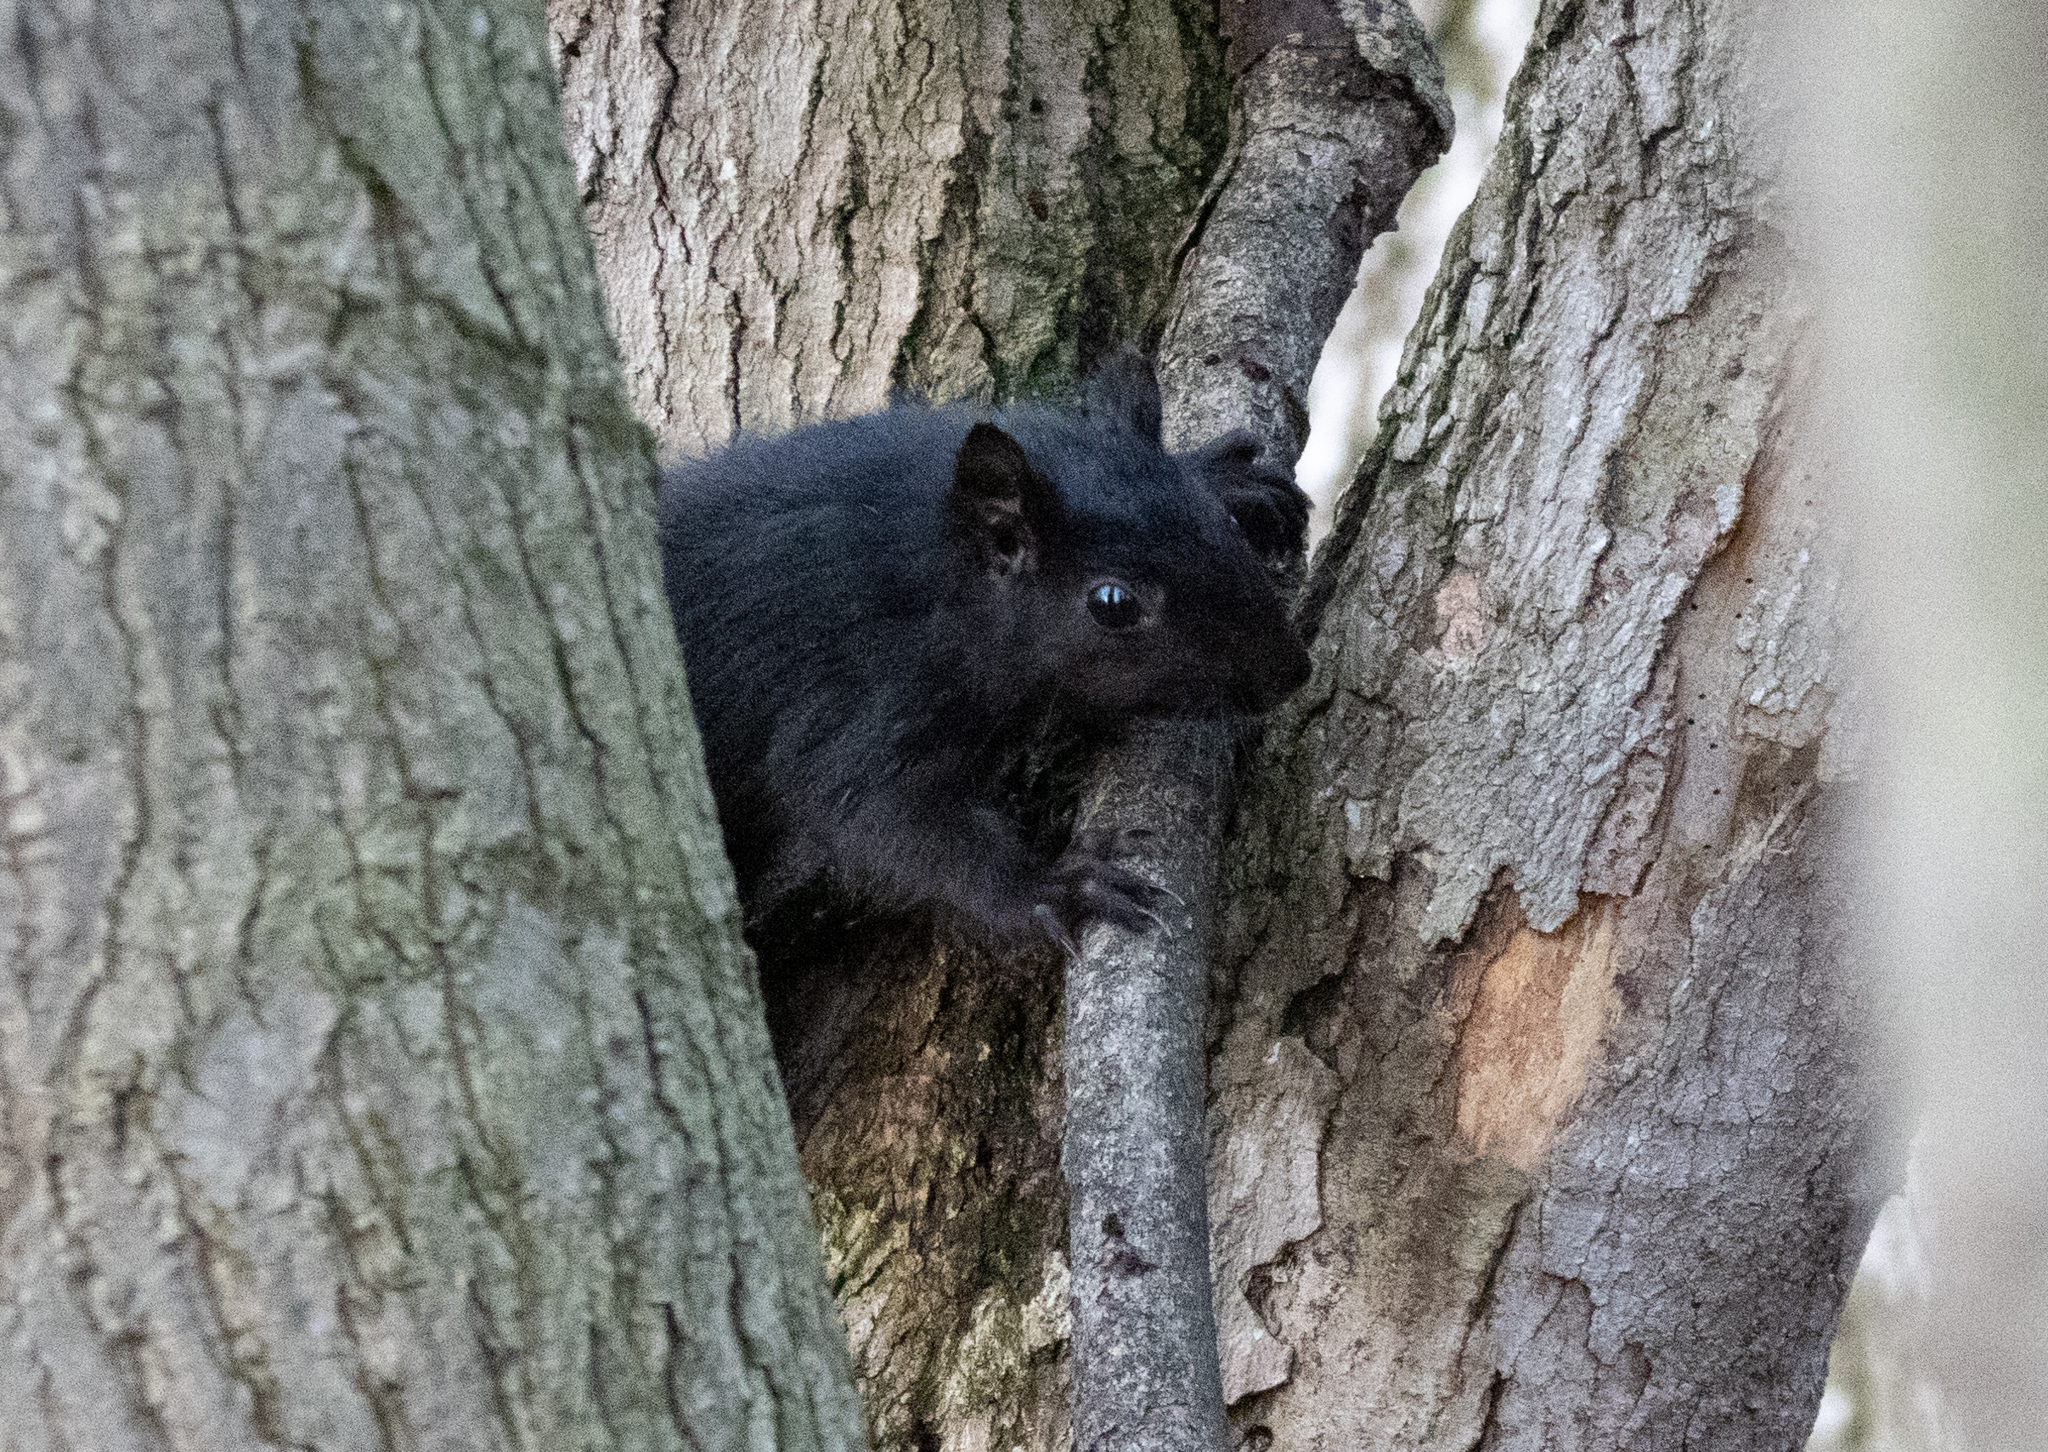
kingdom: Animalia
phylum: Chordata
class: Mammalia
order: Rodentia
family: Sciuridae
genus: Sciurus
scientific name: Sciurus carolinensis
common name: Eastern gray squirrel
